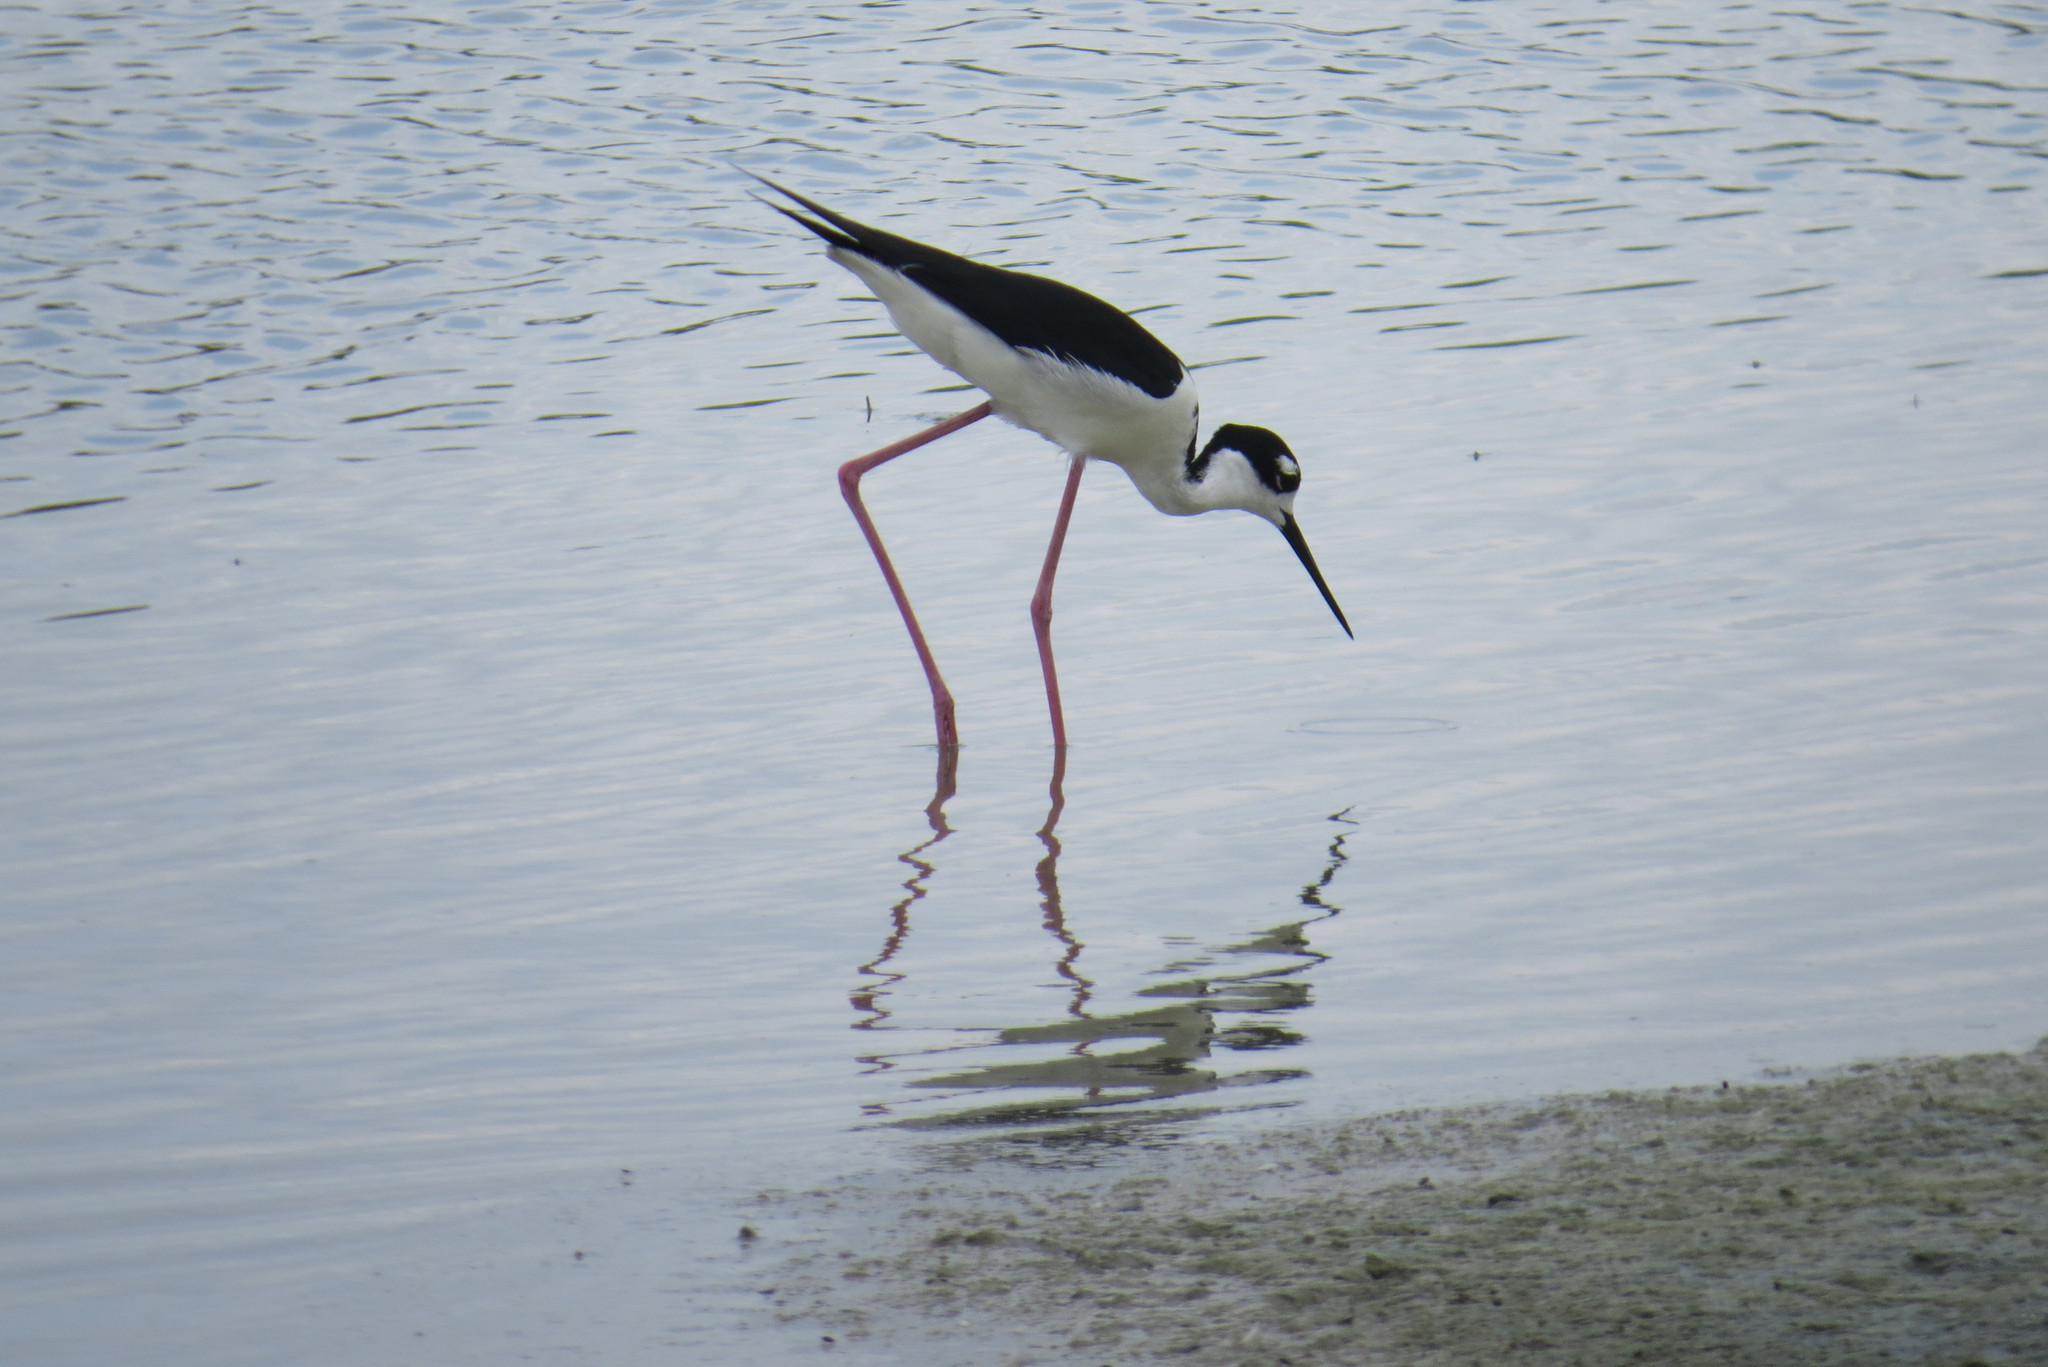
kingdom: Animalia
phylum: Chordata
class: Aves
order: Charadriiformes
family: Recurvirostridae
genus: Himantopus
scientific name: Himantopus mexicanus
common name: Black-necked stilt
